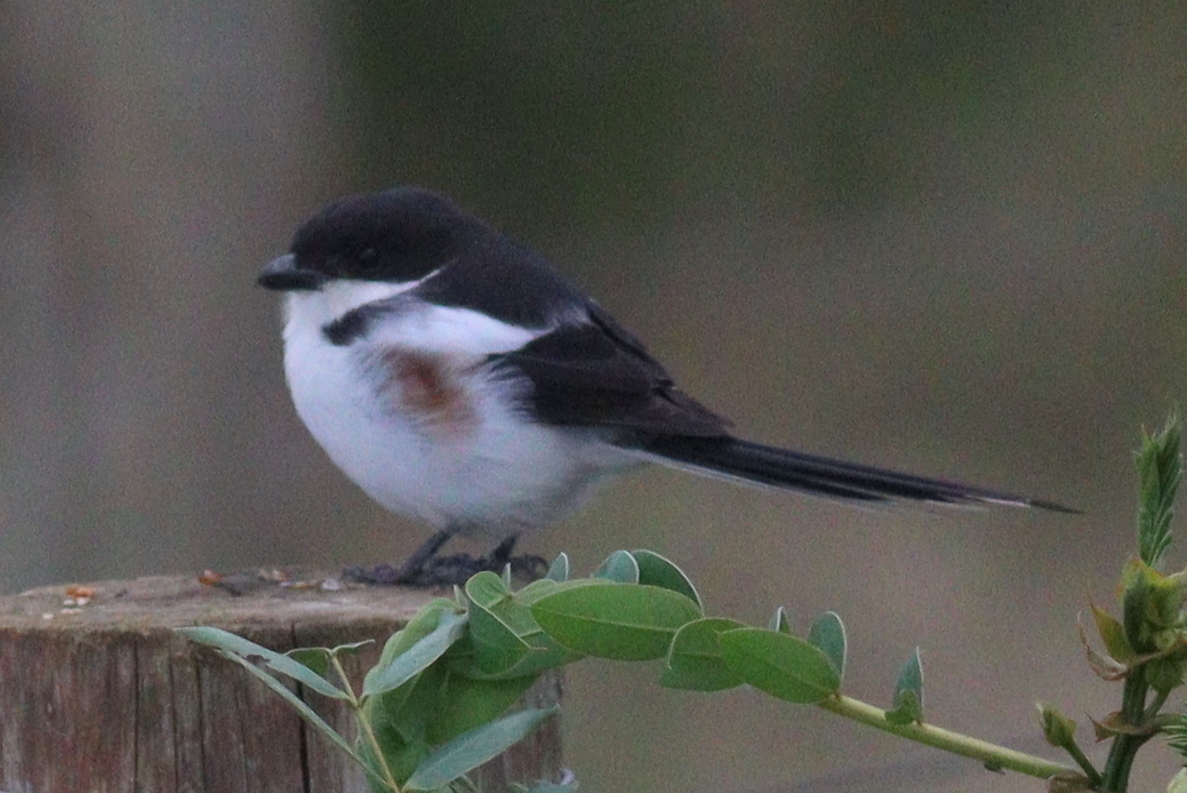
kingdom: Animalia
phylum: Chordata
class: Aves
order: Passeriformes
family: Laniidae
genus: Lanius
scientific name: Lanius humeralis
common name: Northern fiscal
